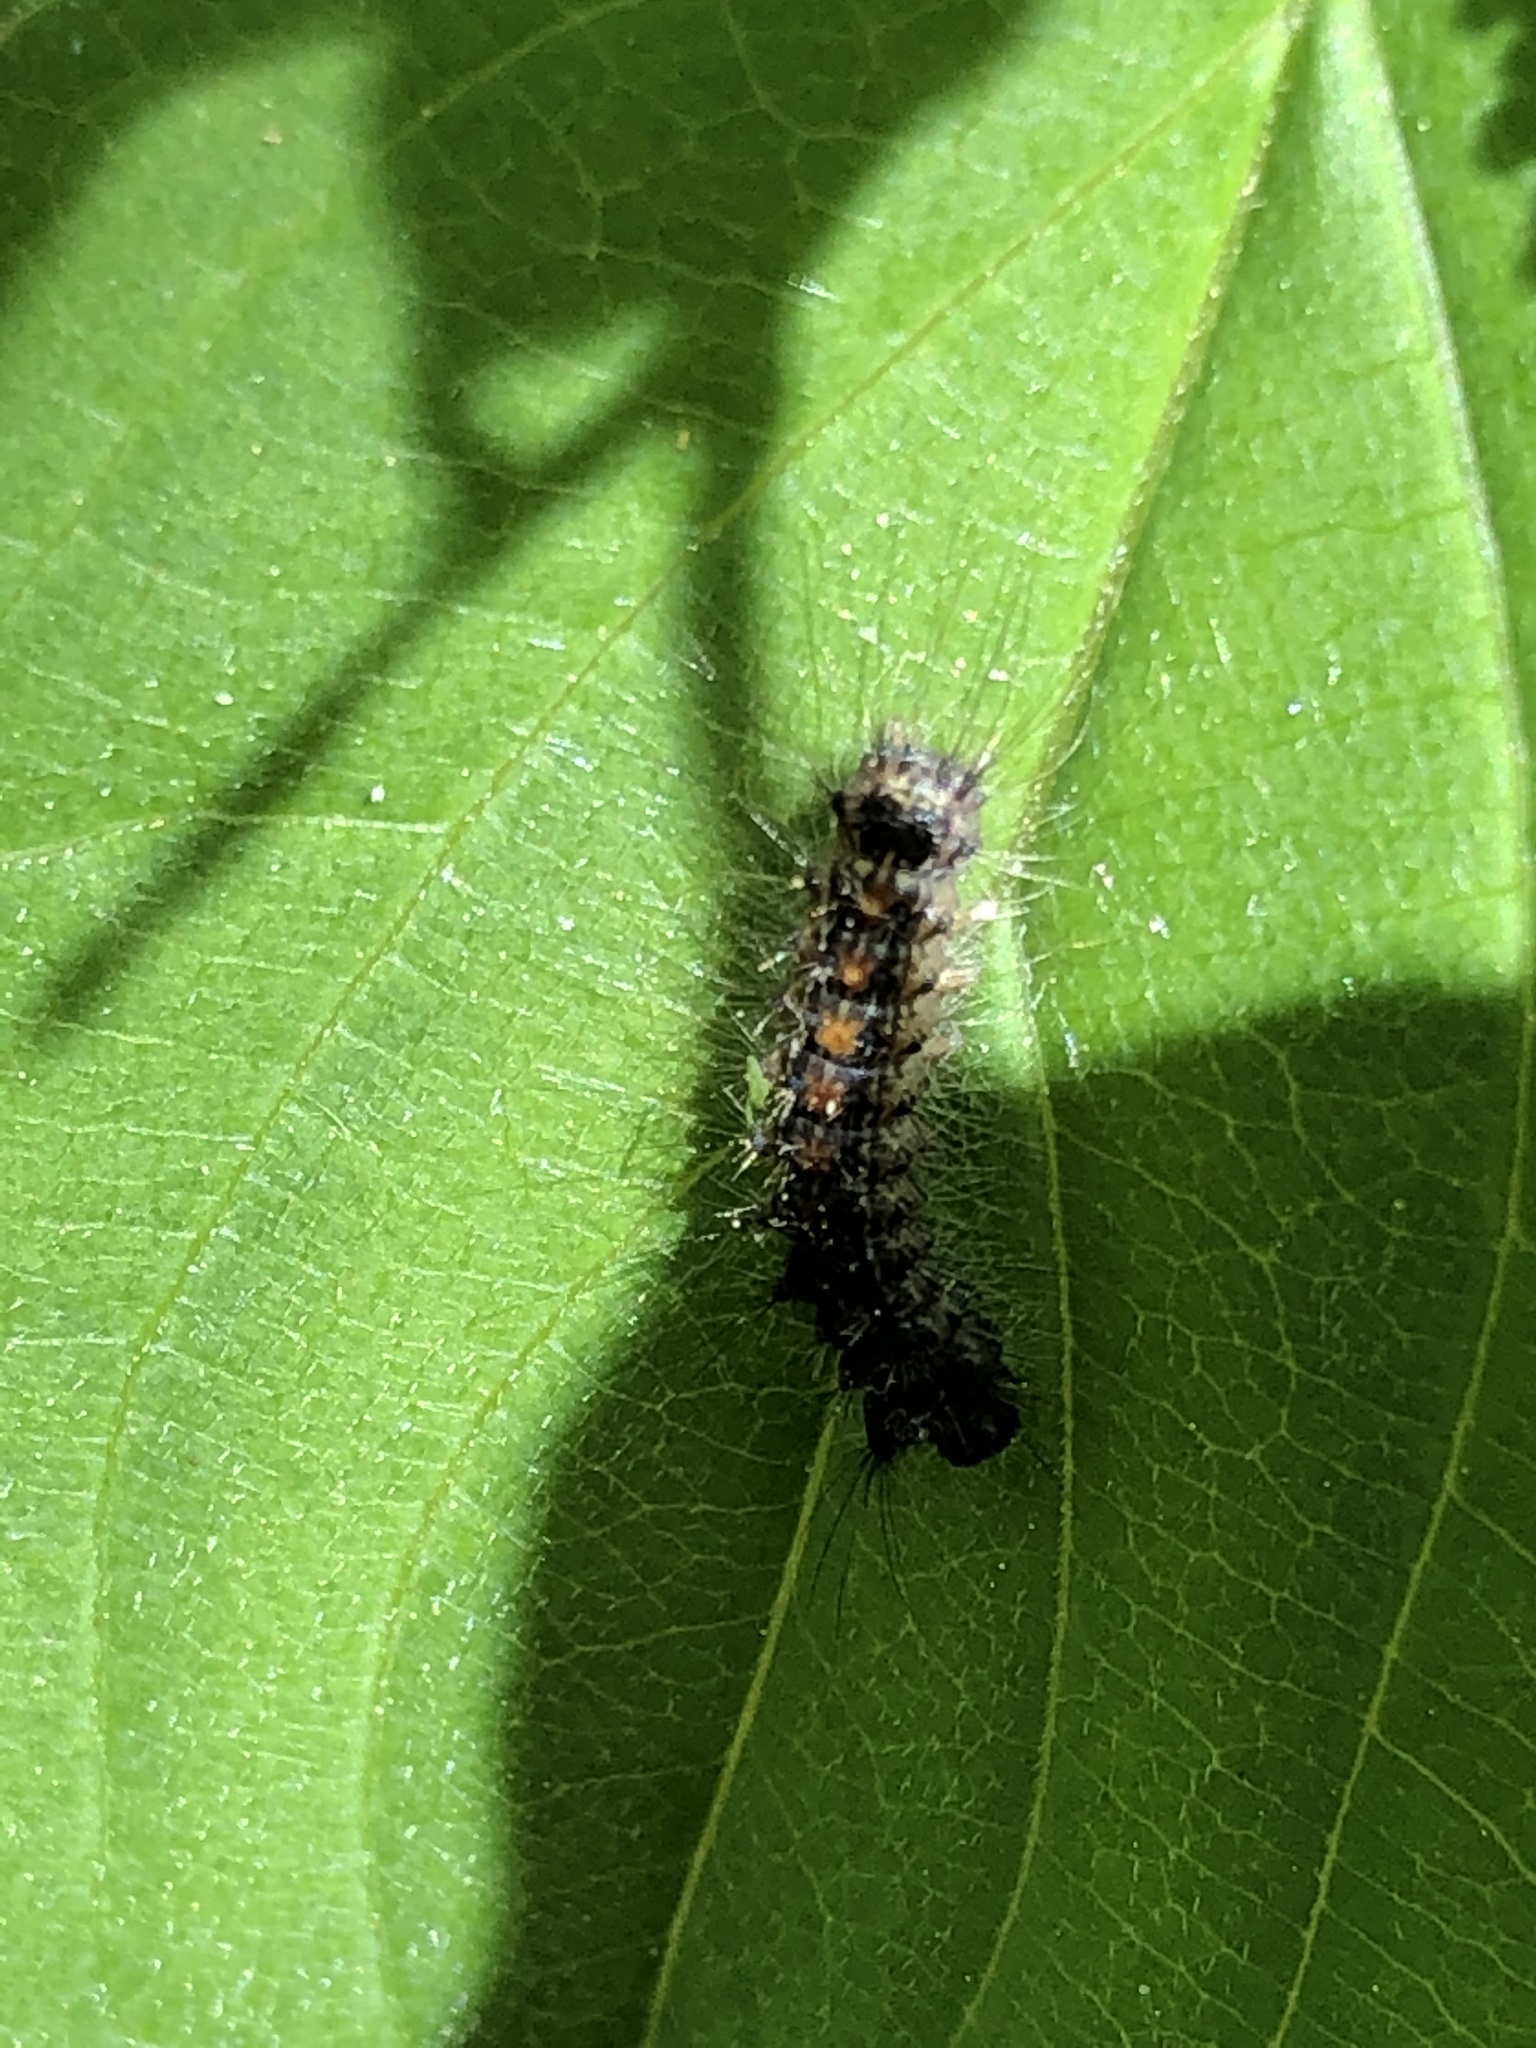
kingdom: Animalia
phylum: Arthropoda
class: Insecta
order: Lepidoptera
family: Erebidae
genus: Lymantria
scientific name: Lymantria dispar
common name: Gypsy moth
